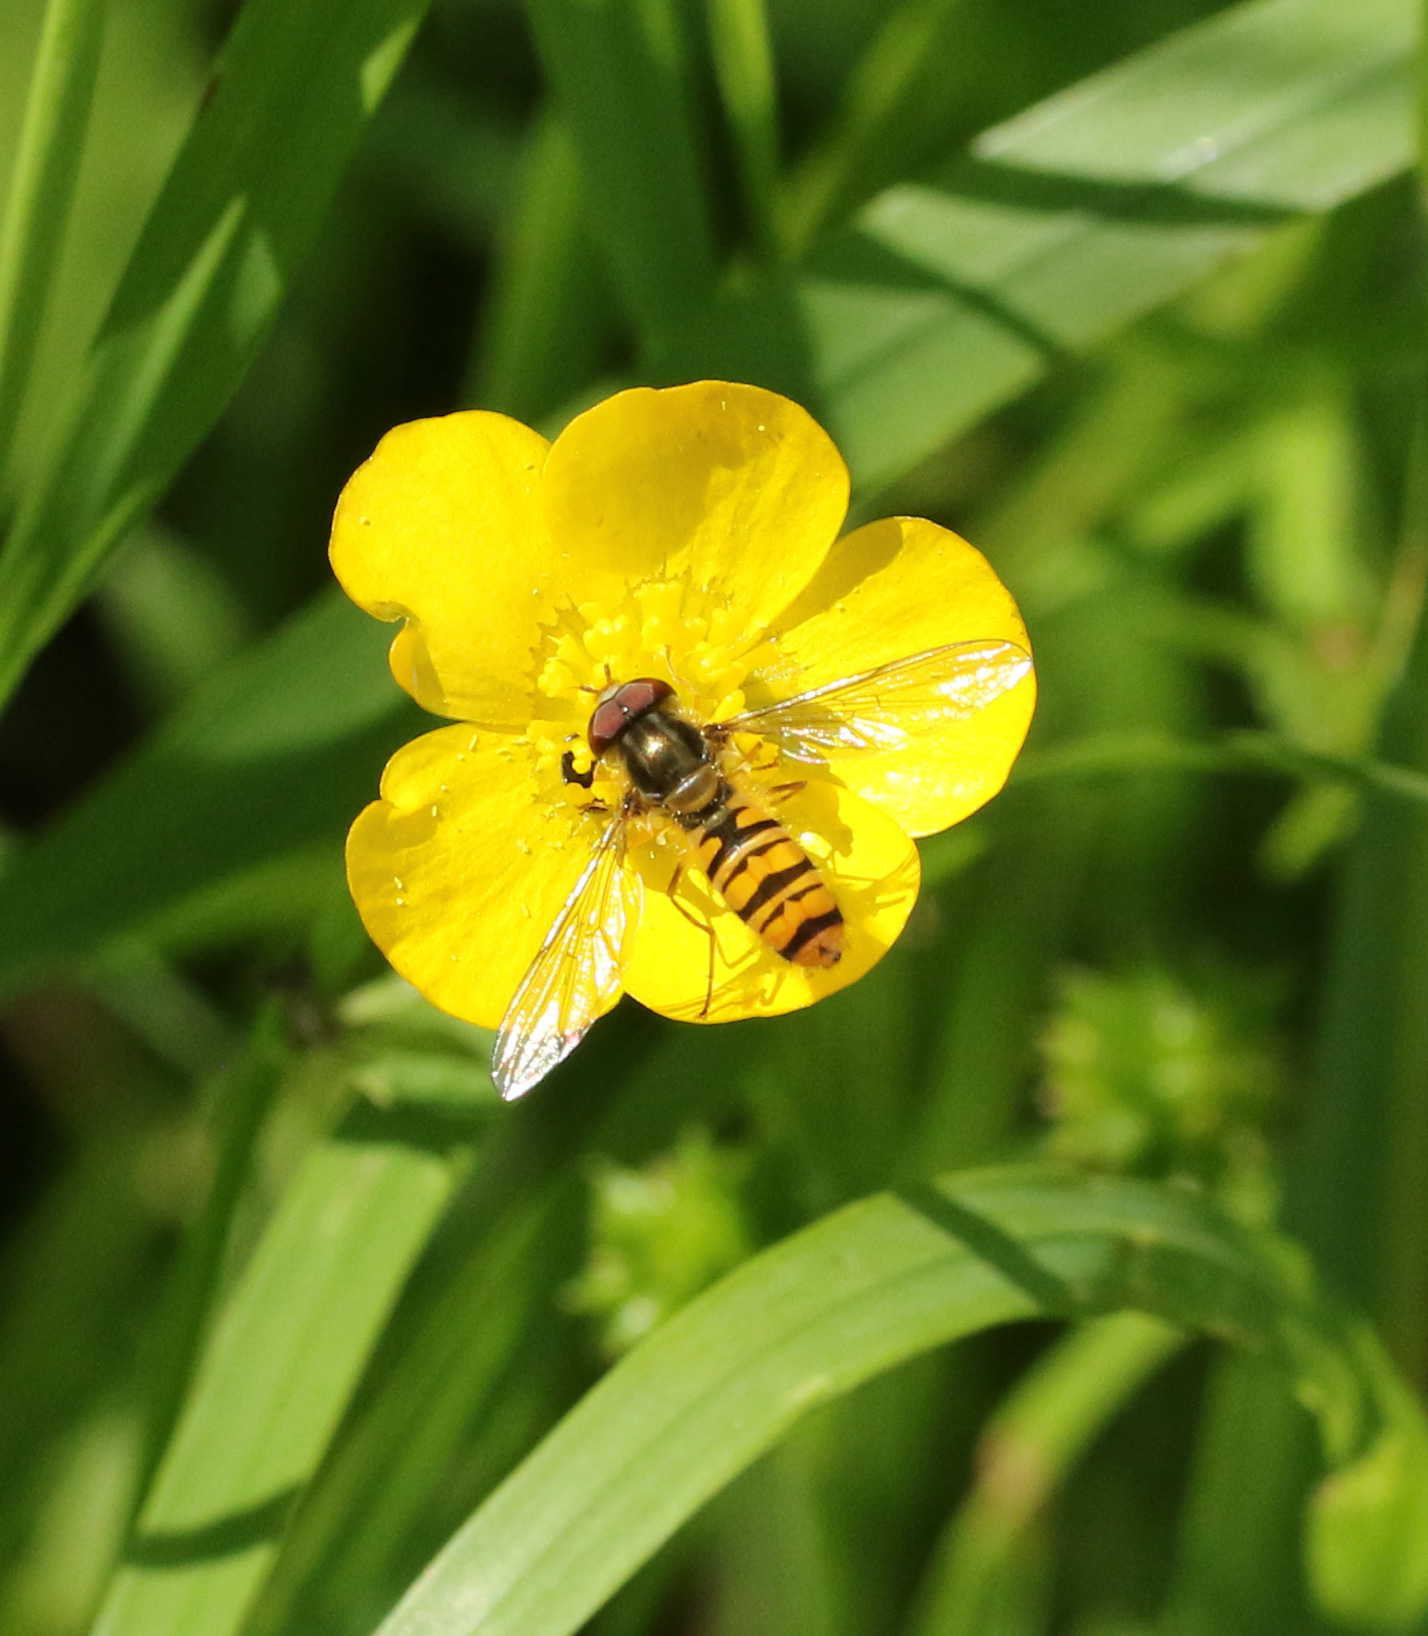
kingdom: Animalia
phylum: Arthropoda
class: Insecta
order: Diptera
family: Syrphidae
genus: Episyrphus
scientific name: Episyrphus balteatus
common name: Marmalade hoverfly
